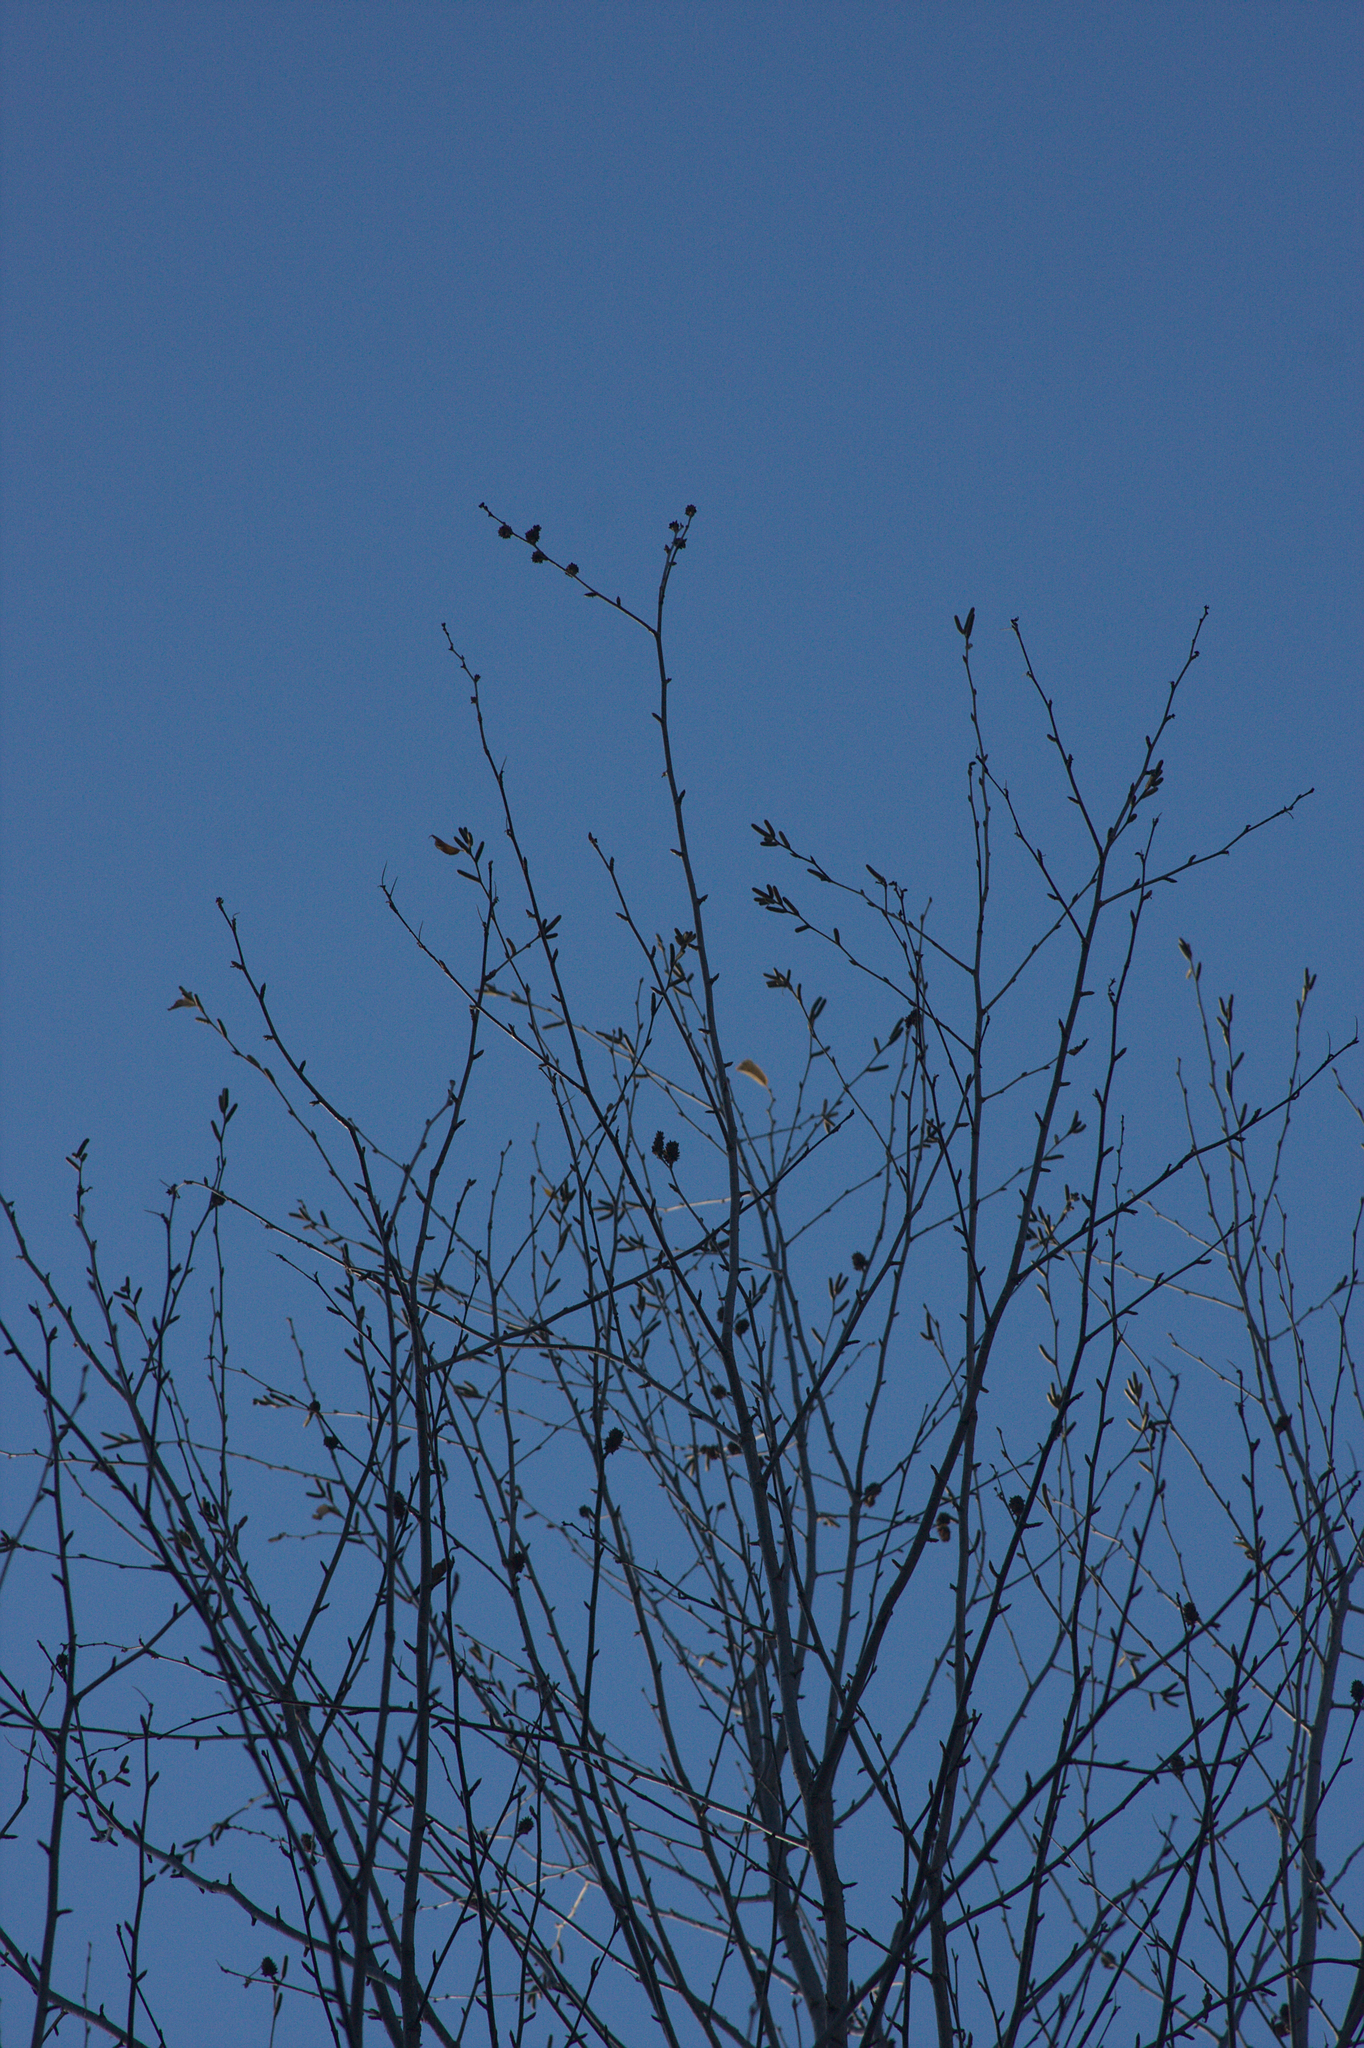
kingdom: Plantae
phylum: Tracheophyta
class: Magnoliopsida
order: Fagales
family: Betulaceae
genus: Betula
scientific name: Betula alleghaniensis
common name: Yellow birch
